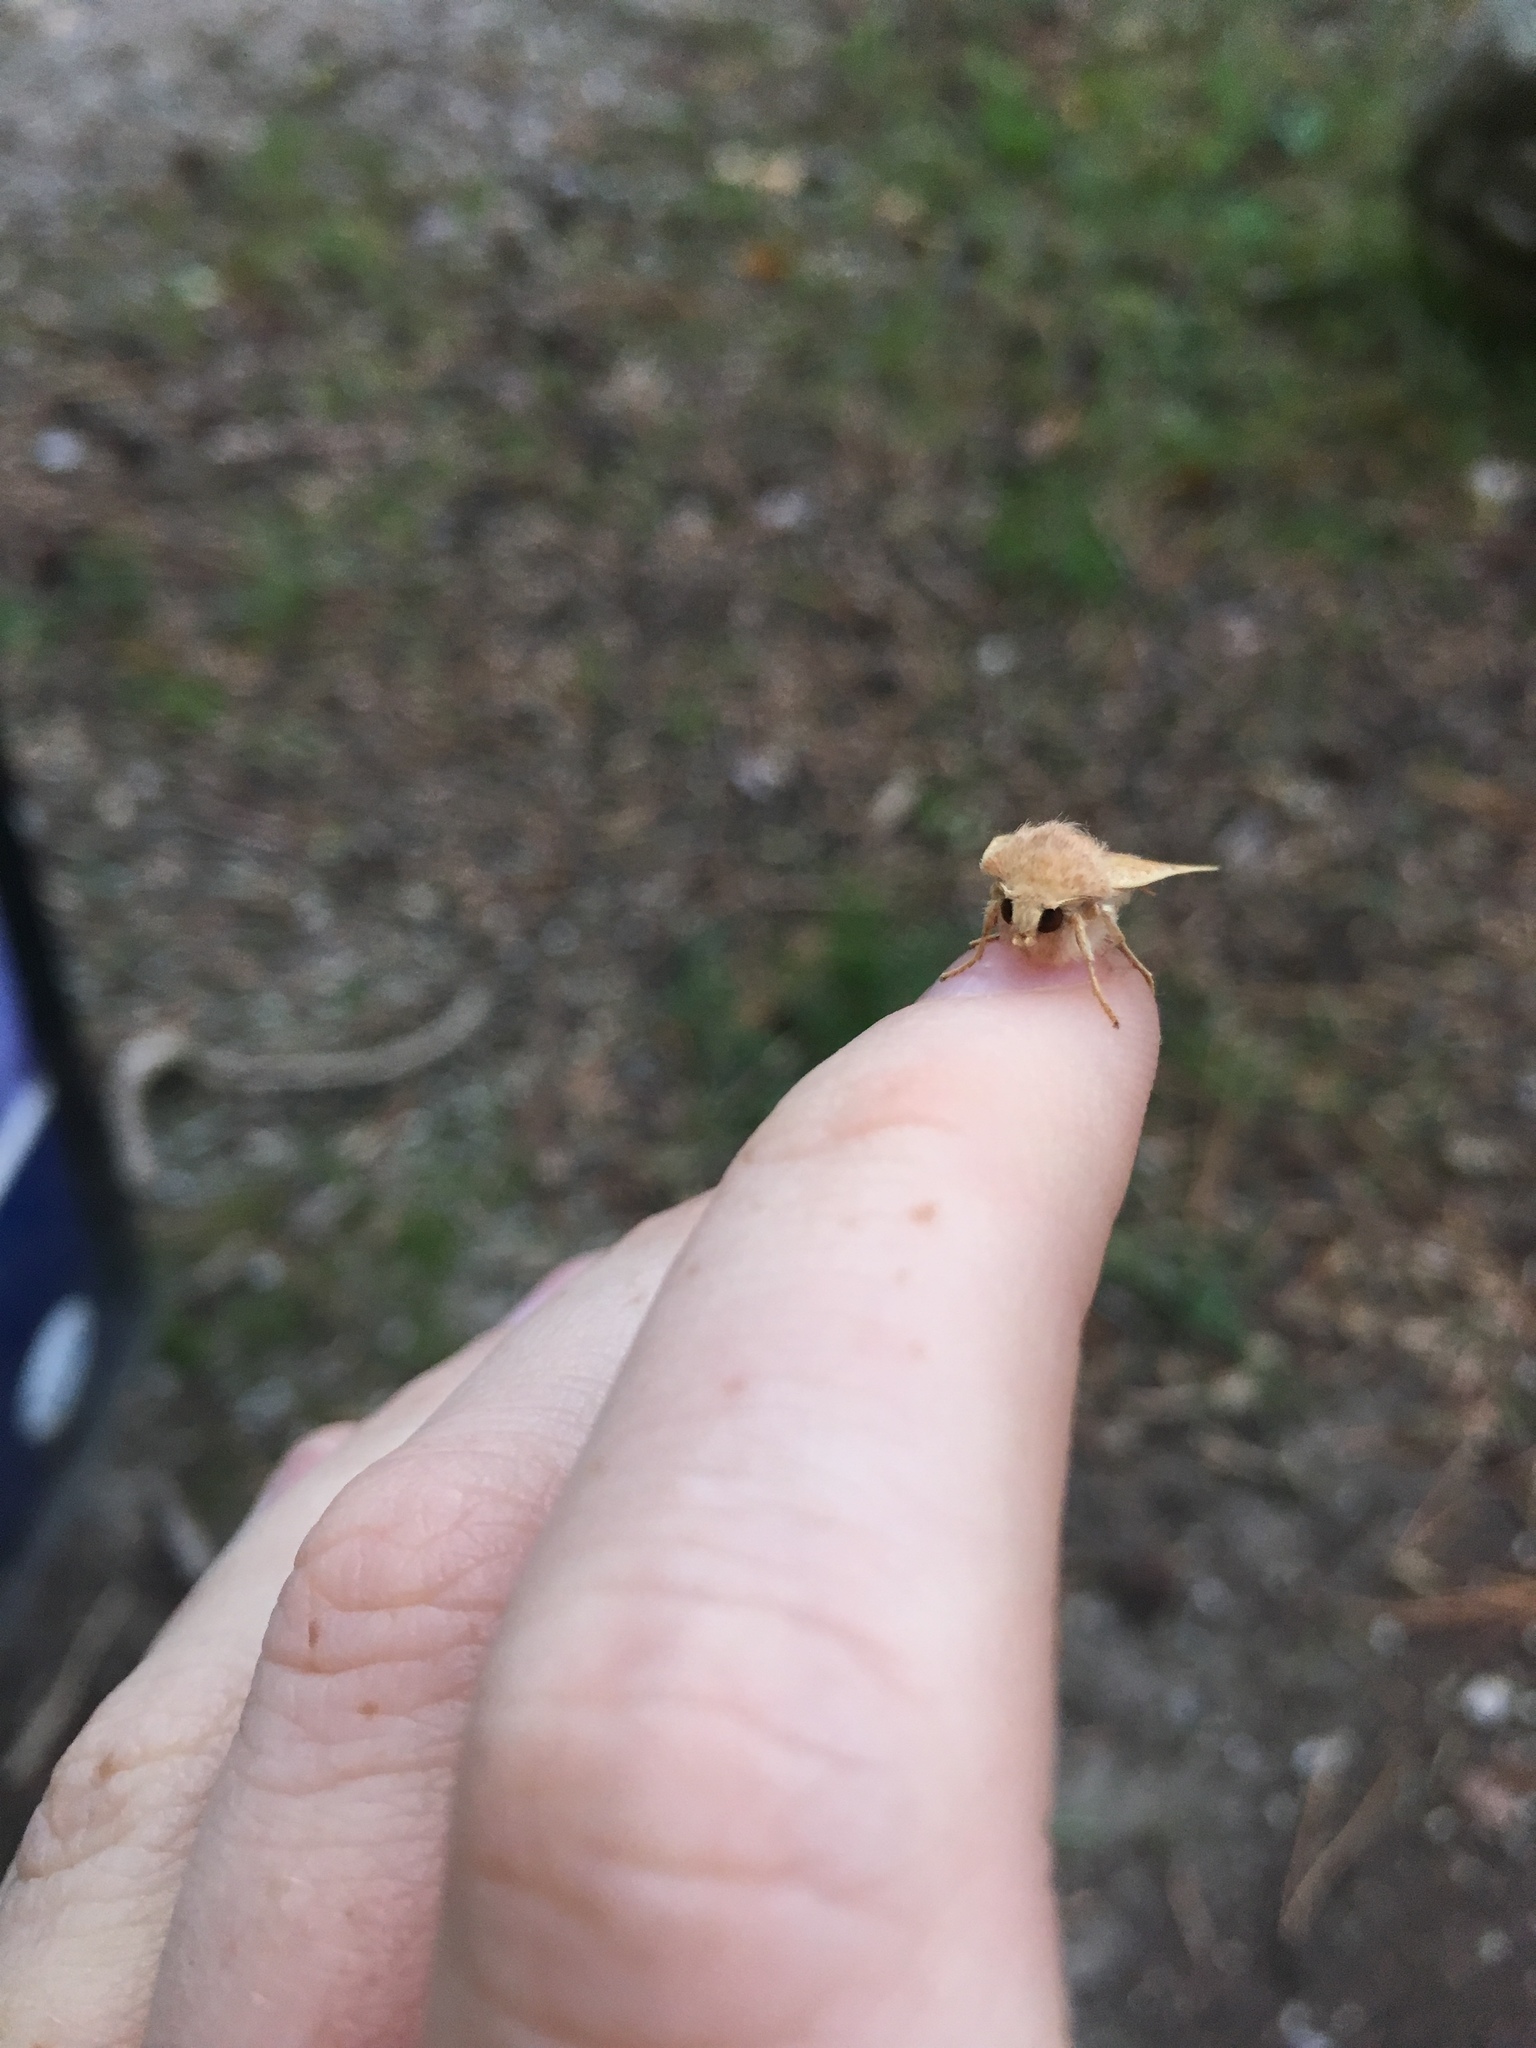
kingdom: Animalia
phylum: Arthropoda
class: Insecta
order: Lepidoptera
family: Noctuidae
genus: Agrochola
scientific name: Agrochola bicolorago
